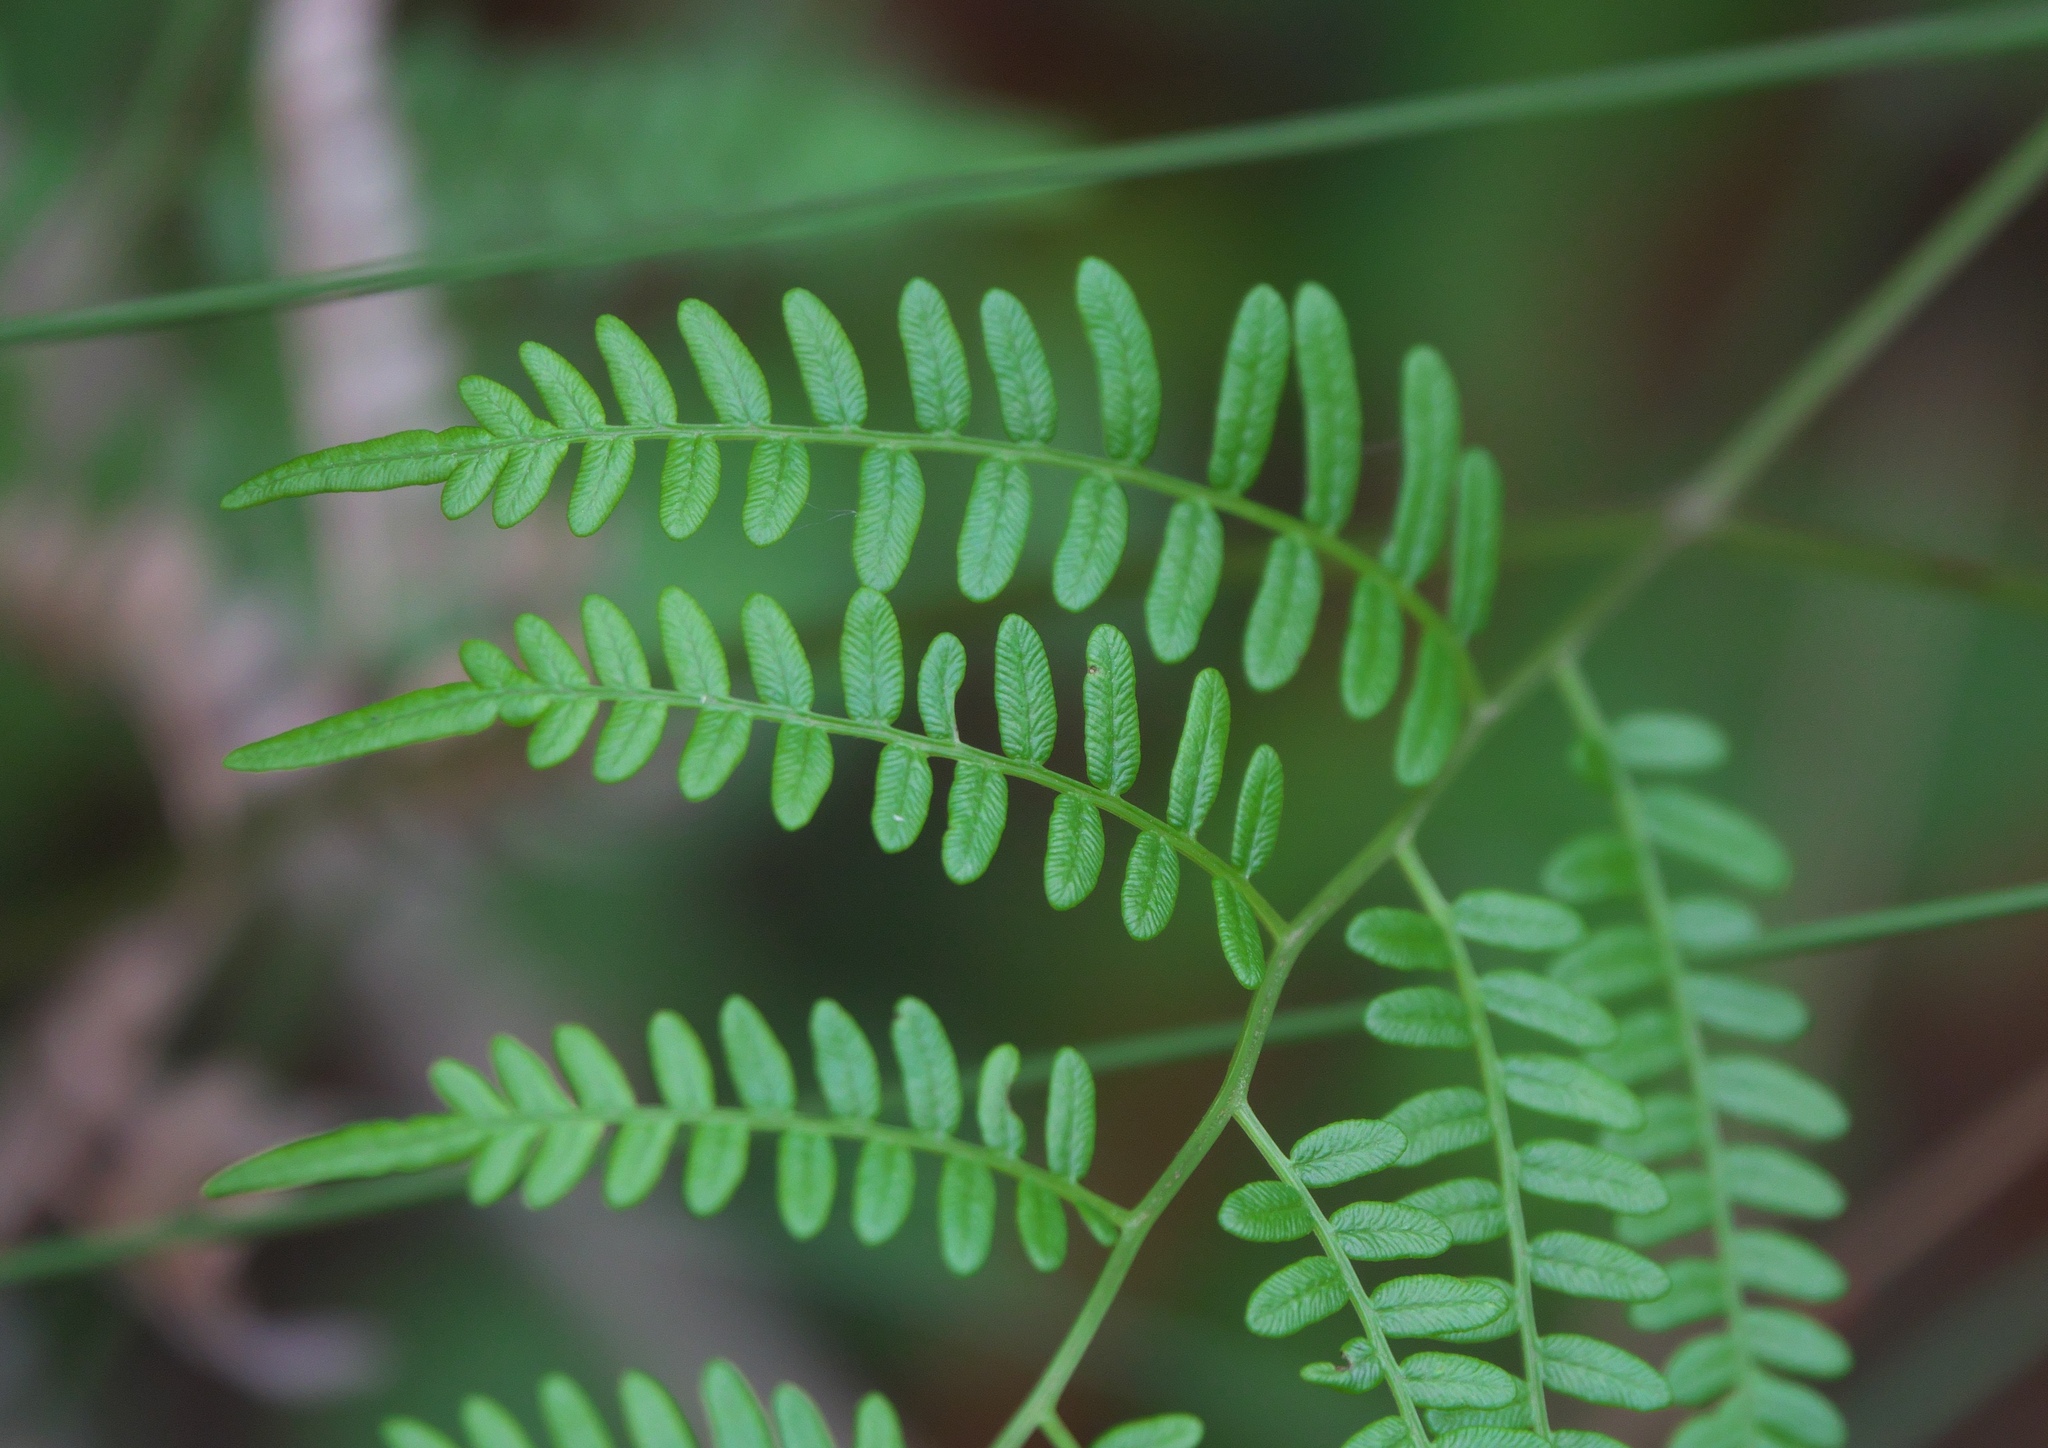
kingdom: Plantae
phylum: Tracheophyta
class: Polypodiopsida
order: Polypodiales
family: Dennstaedtiaceae
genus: Pteridium
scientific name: Pteridium caudatum
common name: Southern bracken fern
